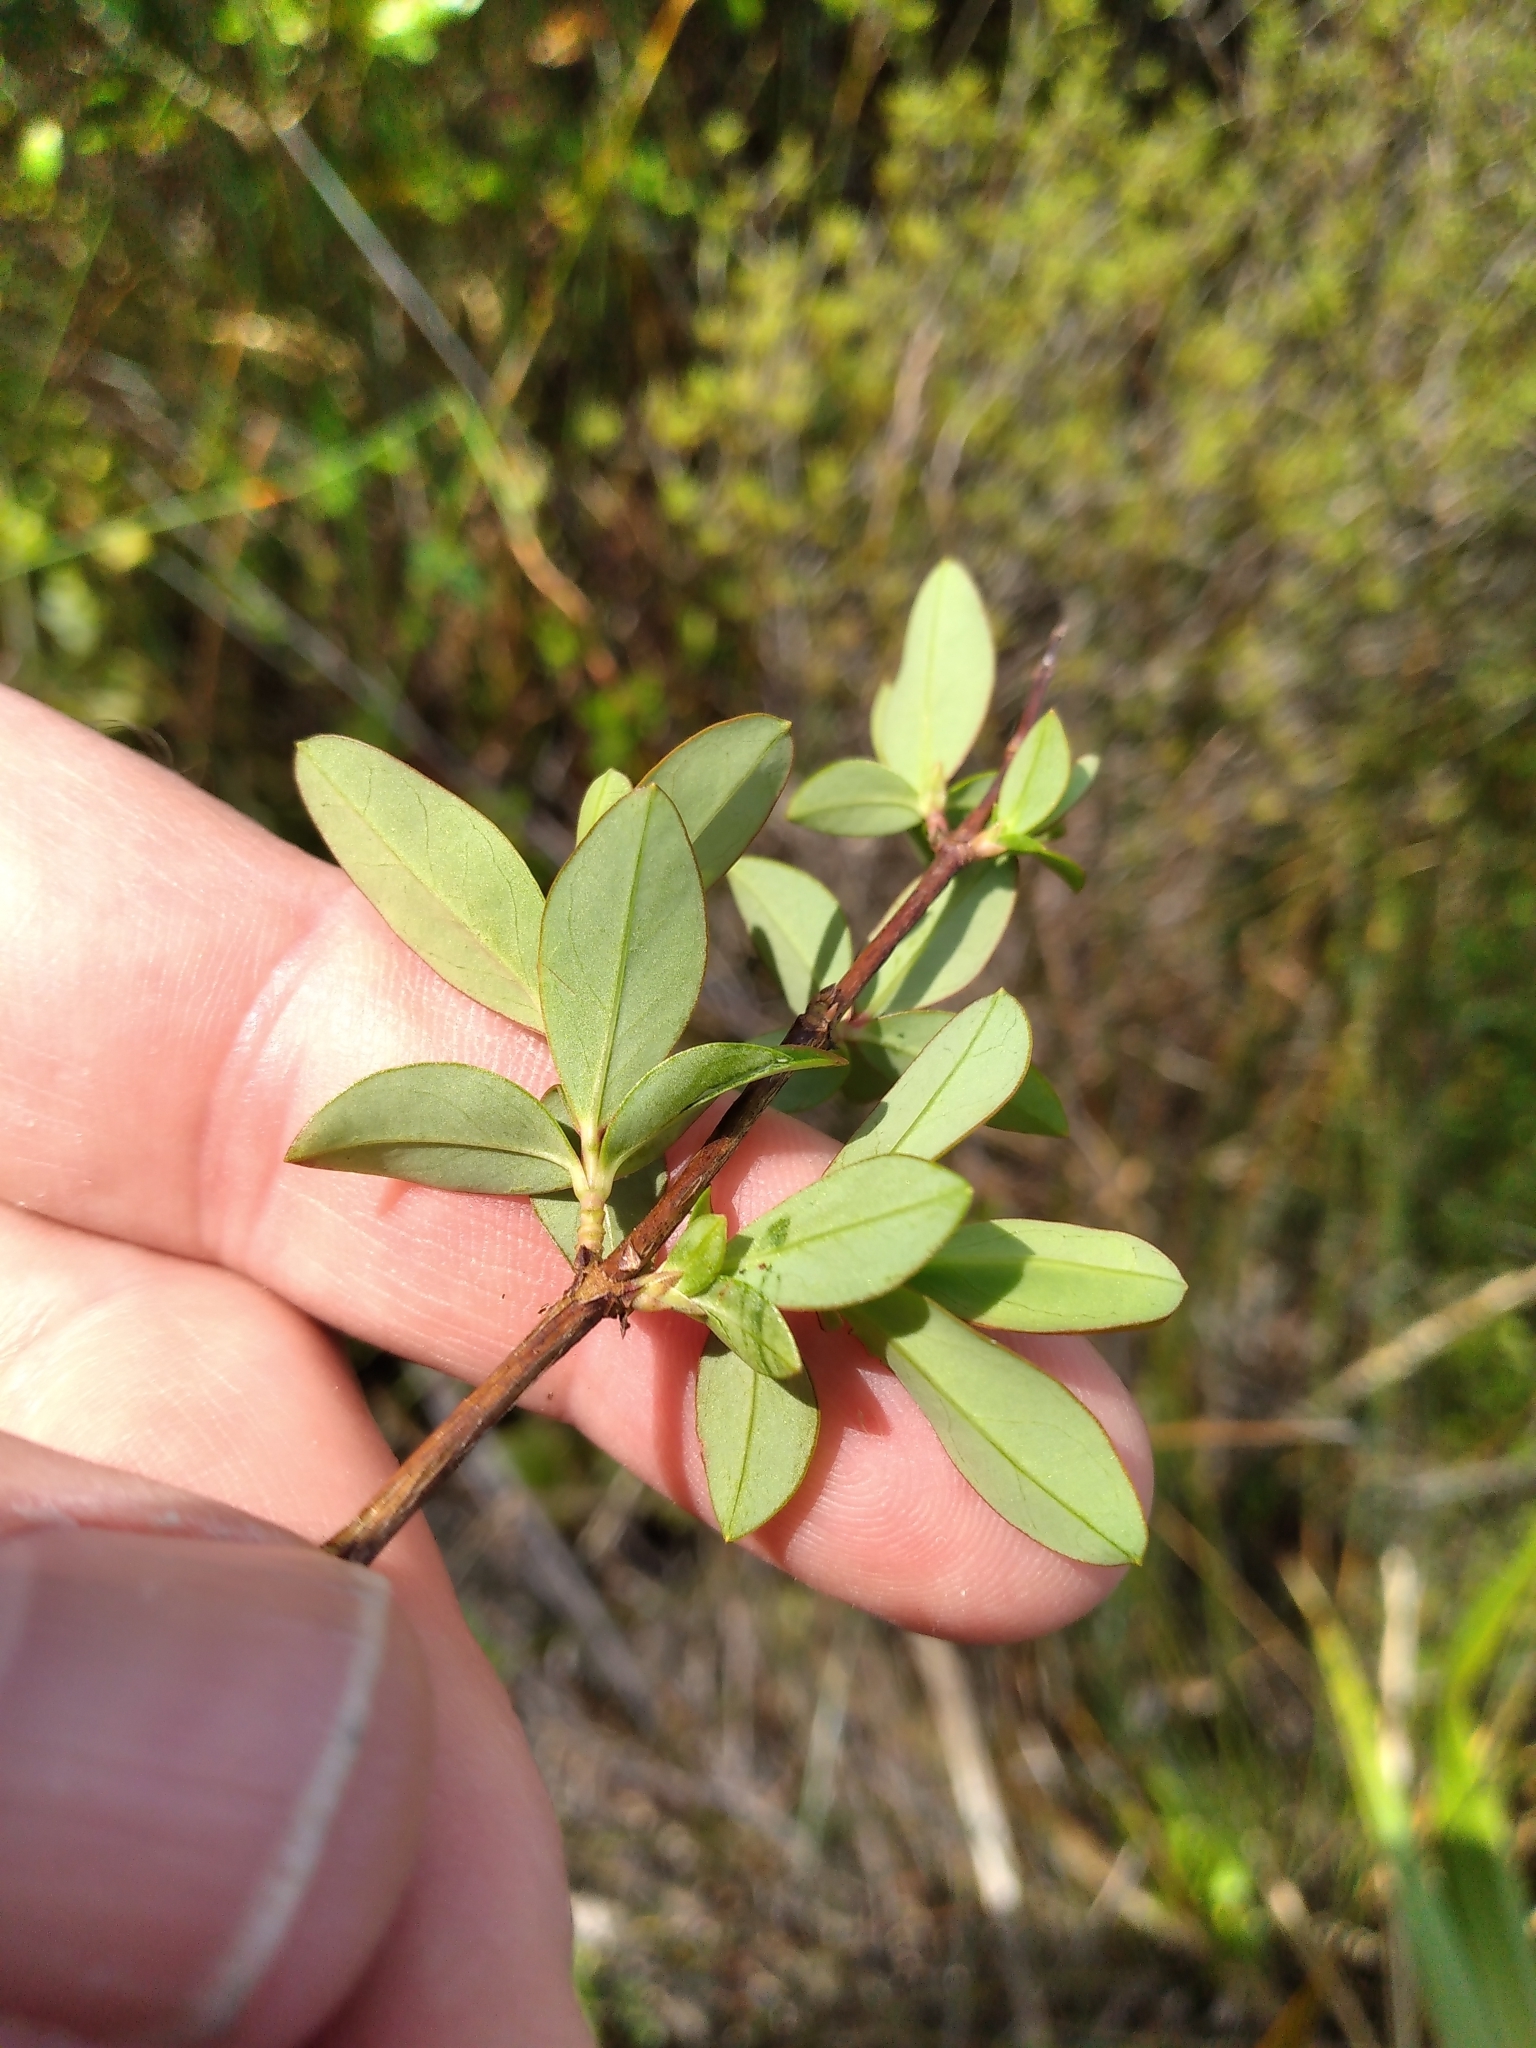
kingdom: Plantae
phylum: Tracheophyta
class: Magnoliopsida
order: Malpighiales
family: Hypericaceae
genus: Hypericum
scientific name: Hypericum calycinum
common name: Rose-of-sharon
